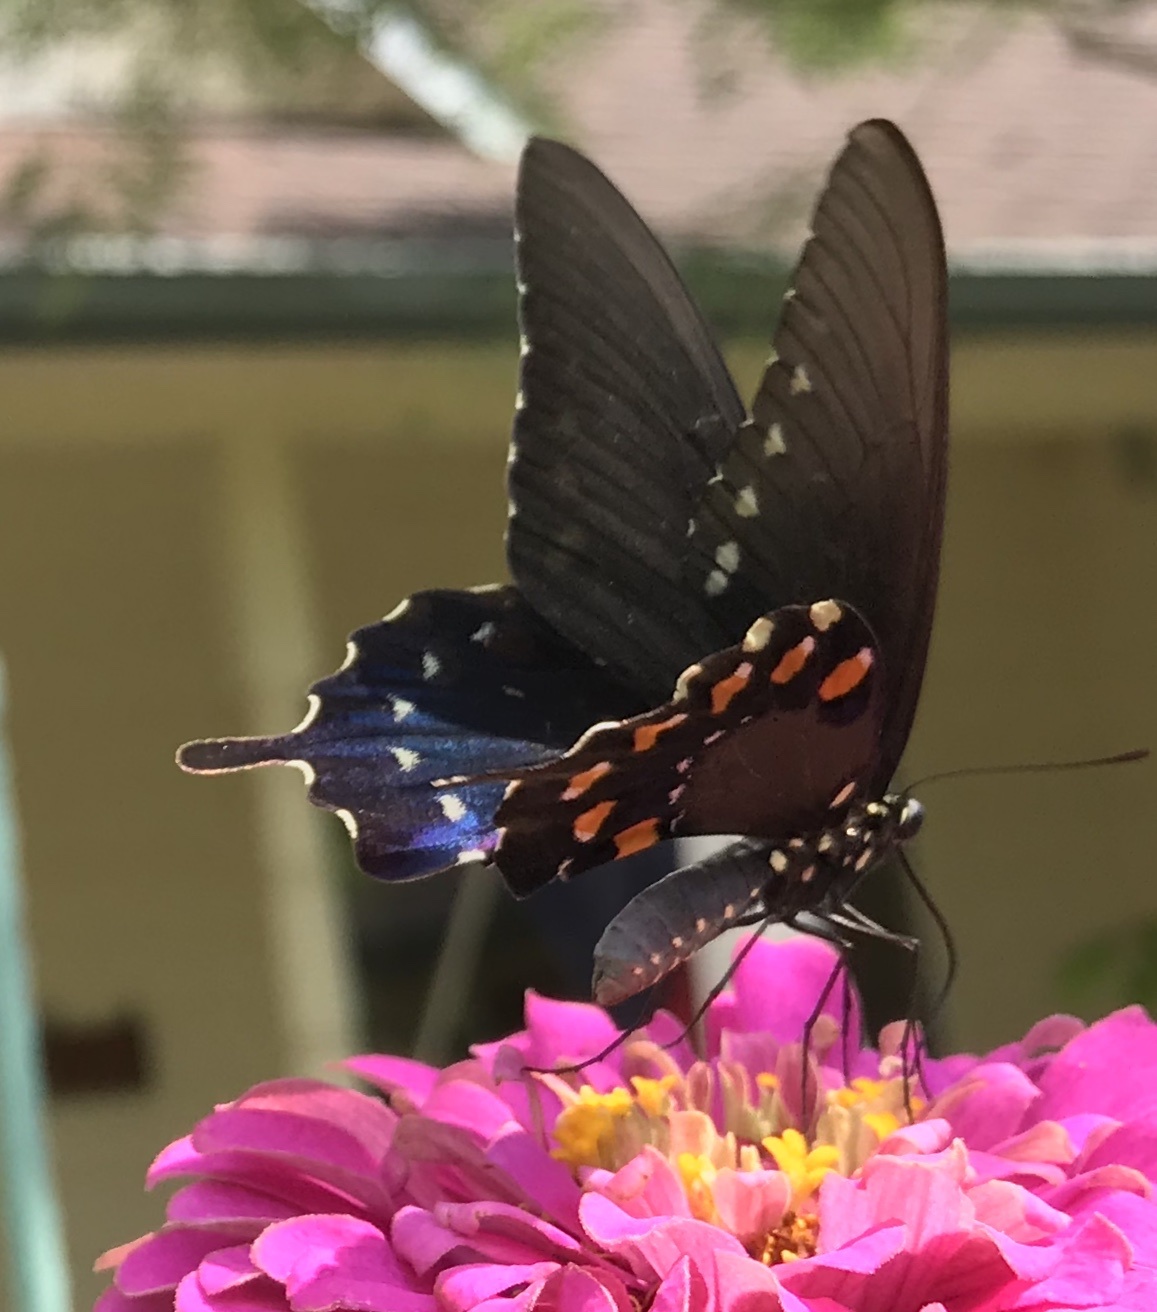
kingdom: Animalia
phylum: Arthropoda
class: Insecta
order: Lepidoptera
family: Papilionidae
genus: Battus
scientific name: Battus philenor
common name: Pipevine swallowtail
